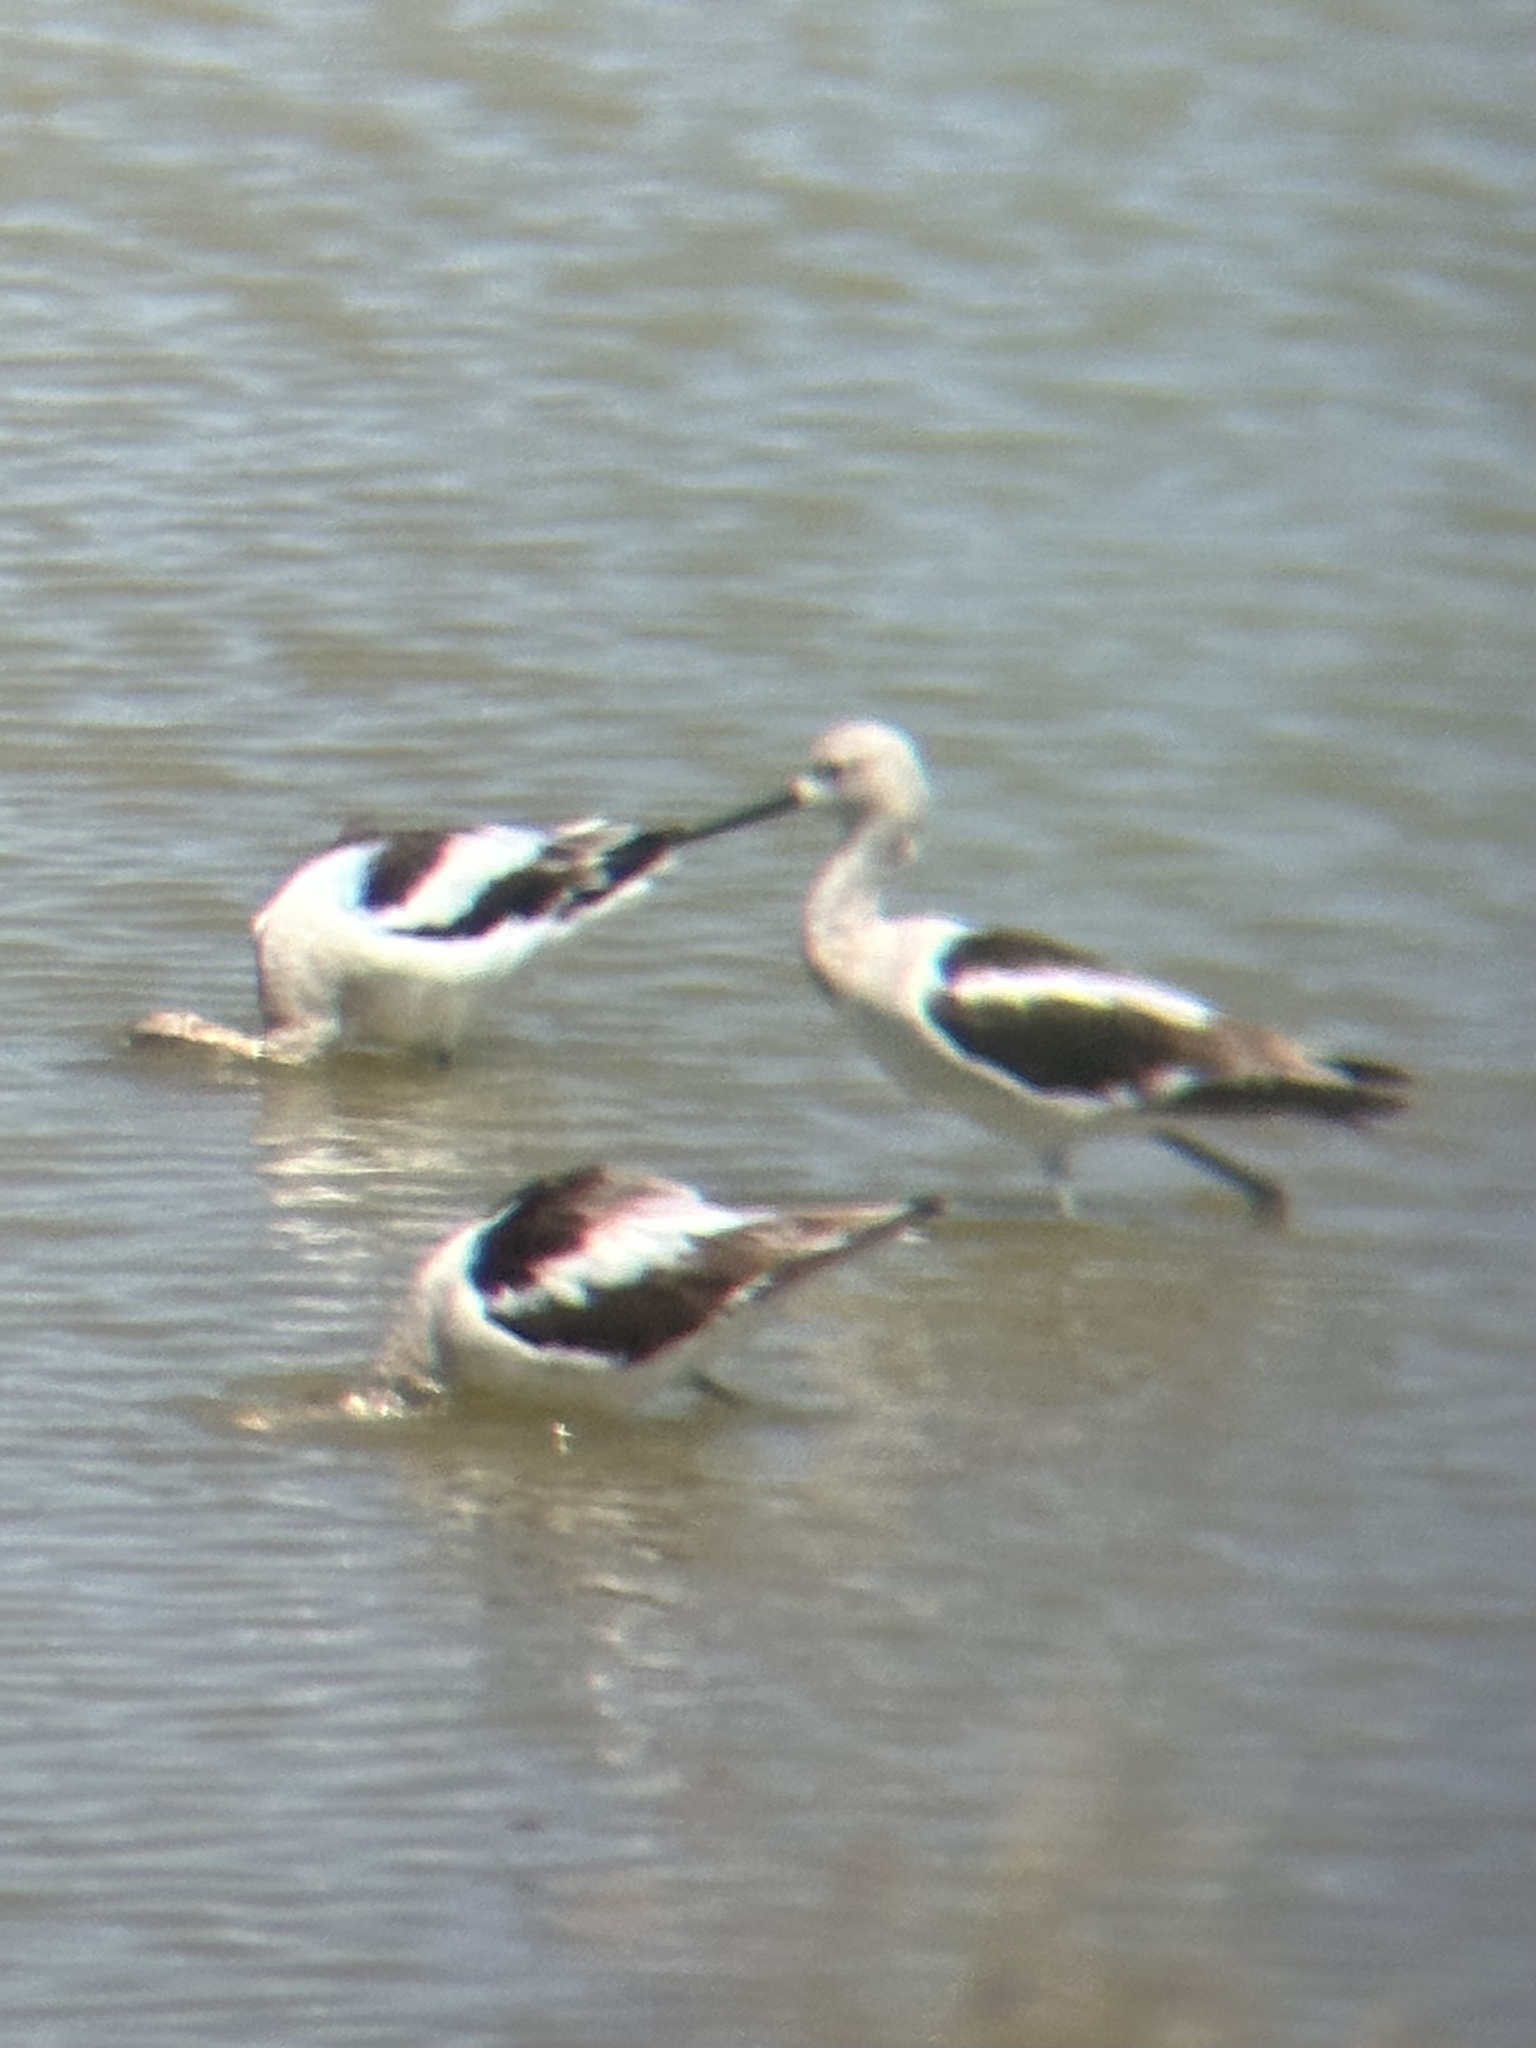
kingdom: Animalia
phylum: Chordata
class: Aves
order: Charadriiformes
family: Recurvirostridae
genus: Recurvirostra
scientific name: Recurvirostra americana
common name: American avocet
